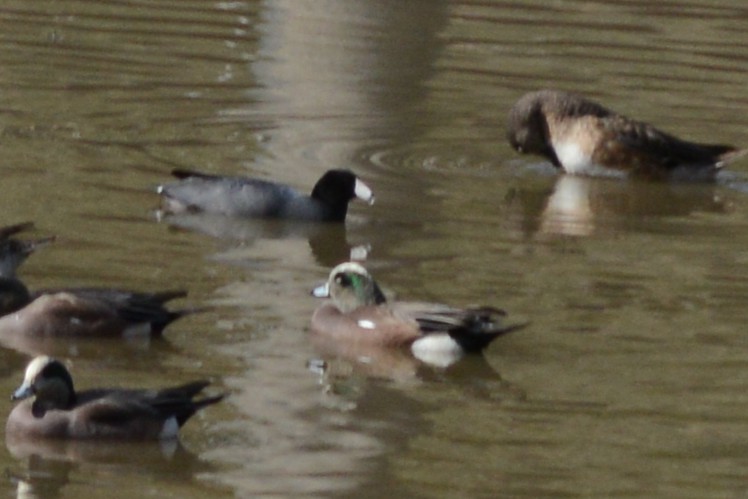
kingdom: Animalia
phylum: Chordata
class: Aves
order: Gruiformes
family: Rallidae
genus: Fulica
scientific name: Fulica americana
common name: American coot
